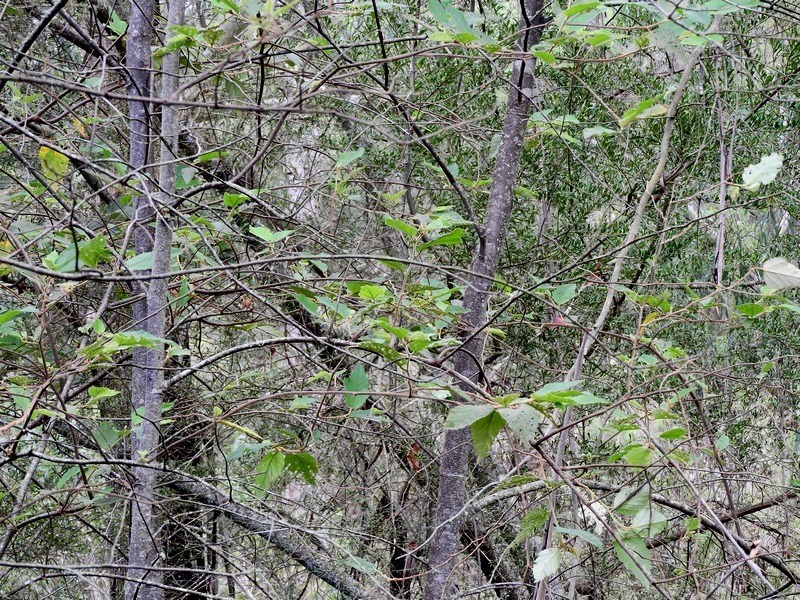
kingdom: Plantae
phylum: Tracheophyta
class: Magnoliopsida
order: Rosales
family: Rhamnaceae
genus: Pomaderris
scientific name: Pomaderris aspera
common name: Hazel pomaderris
